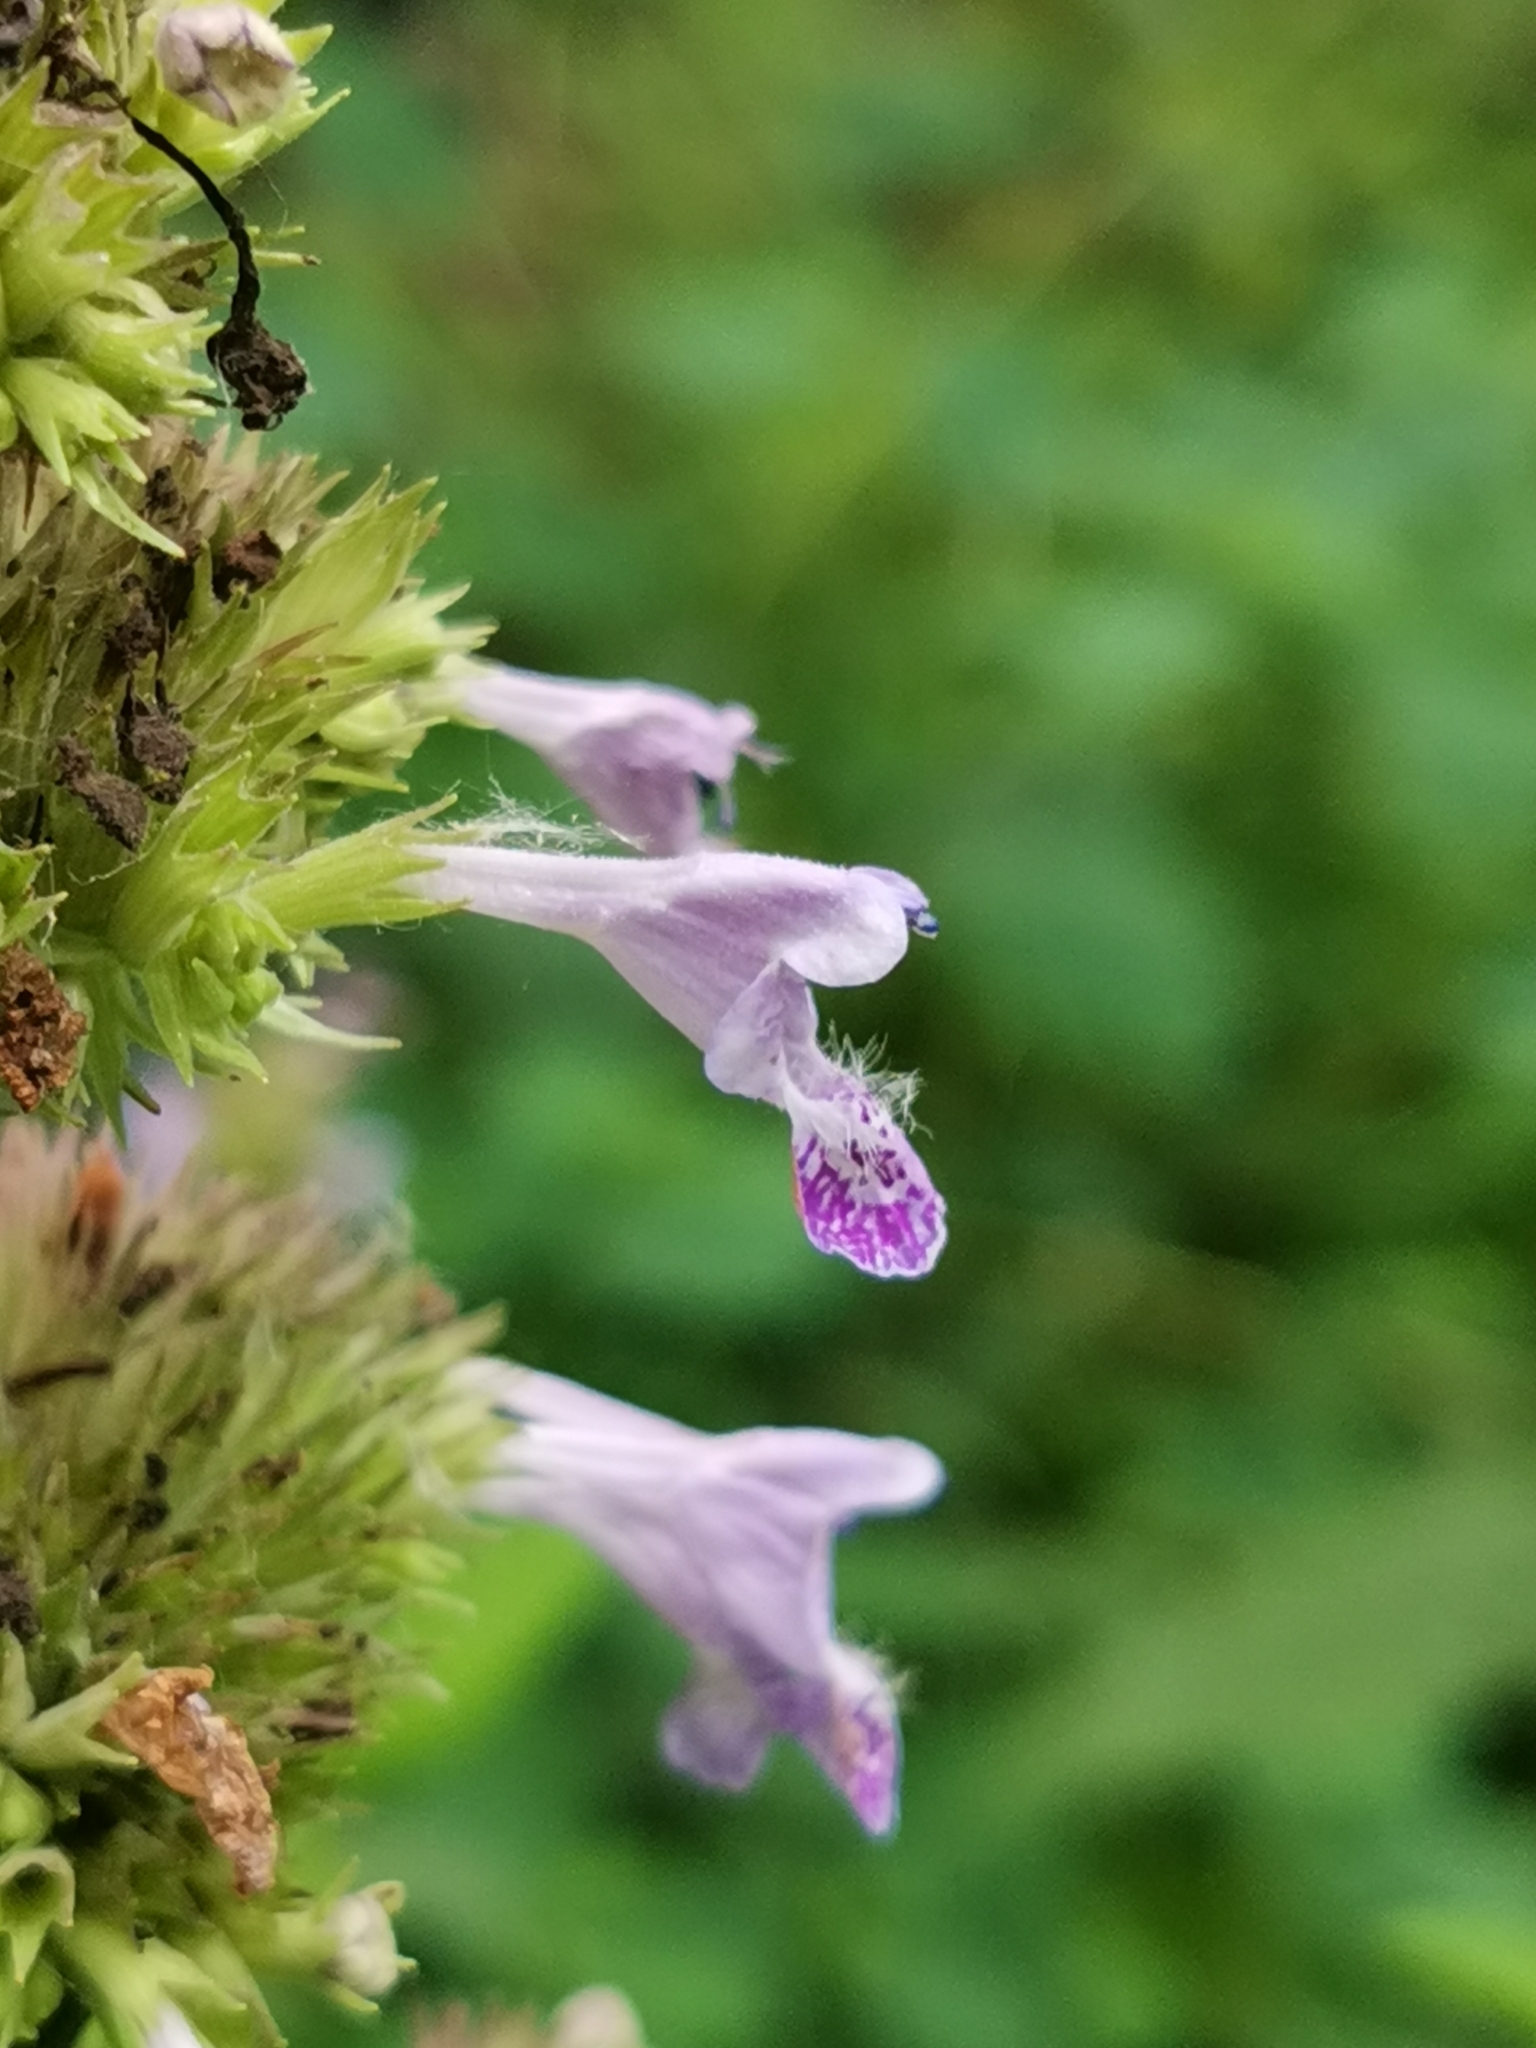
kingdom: Plantae
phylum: Tracheophyta
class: Magnoliopsida
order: Lamiales
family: Lamiaceae
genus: Nepeta
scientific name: Nepeta manchuriensis
